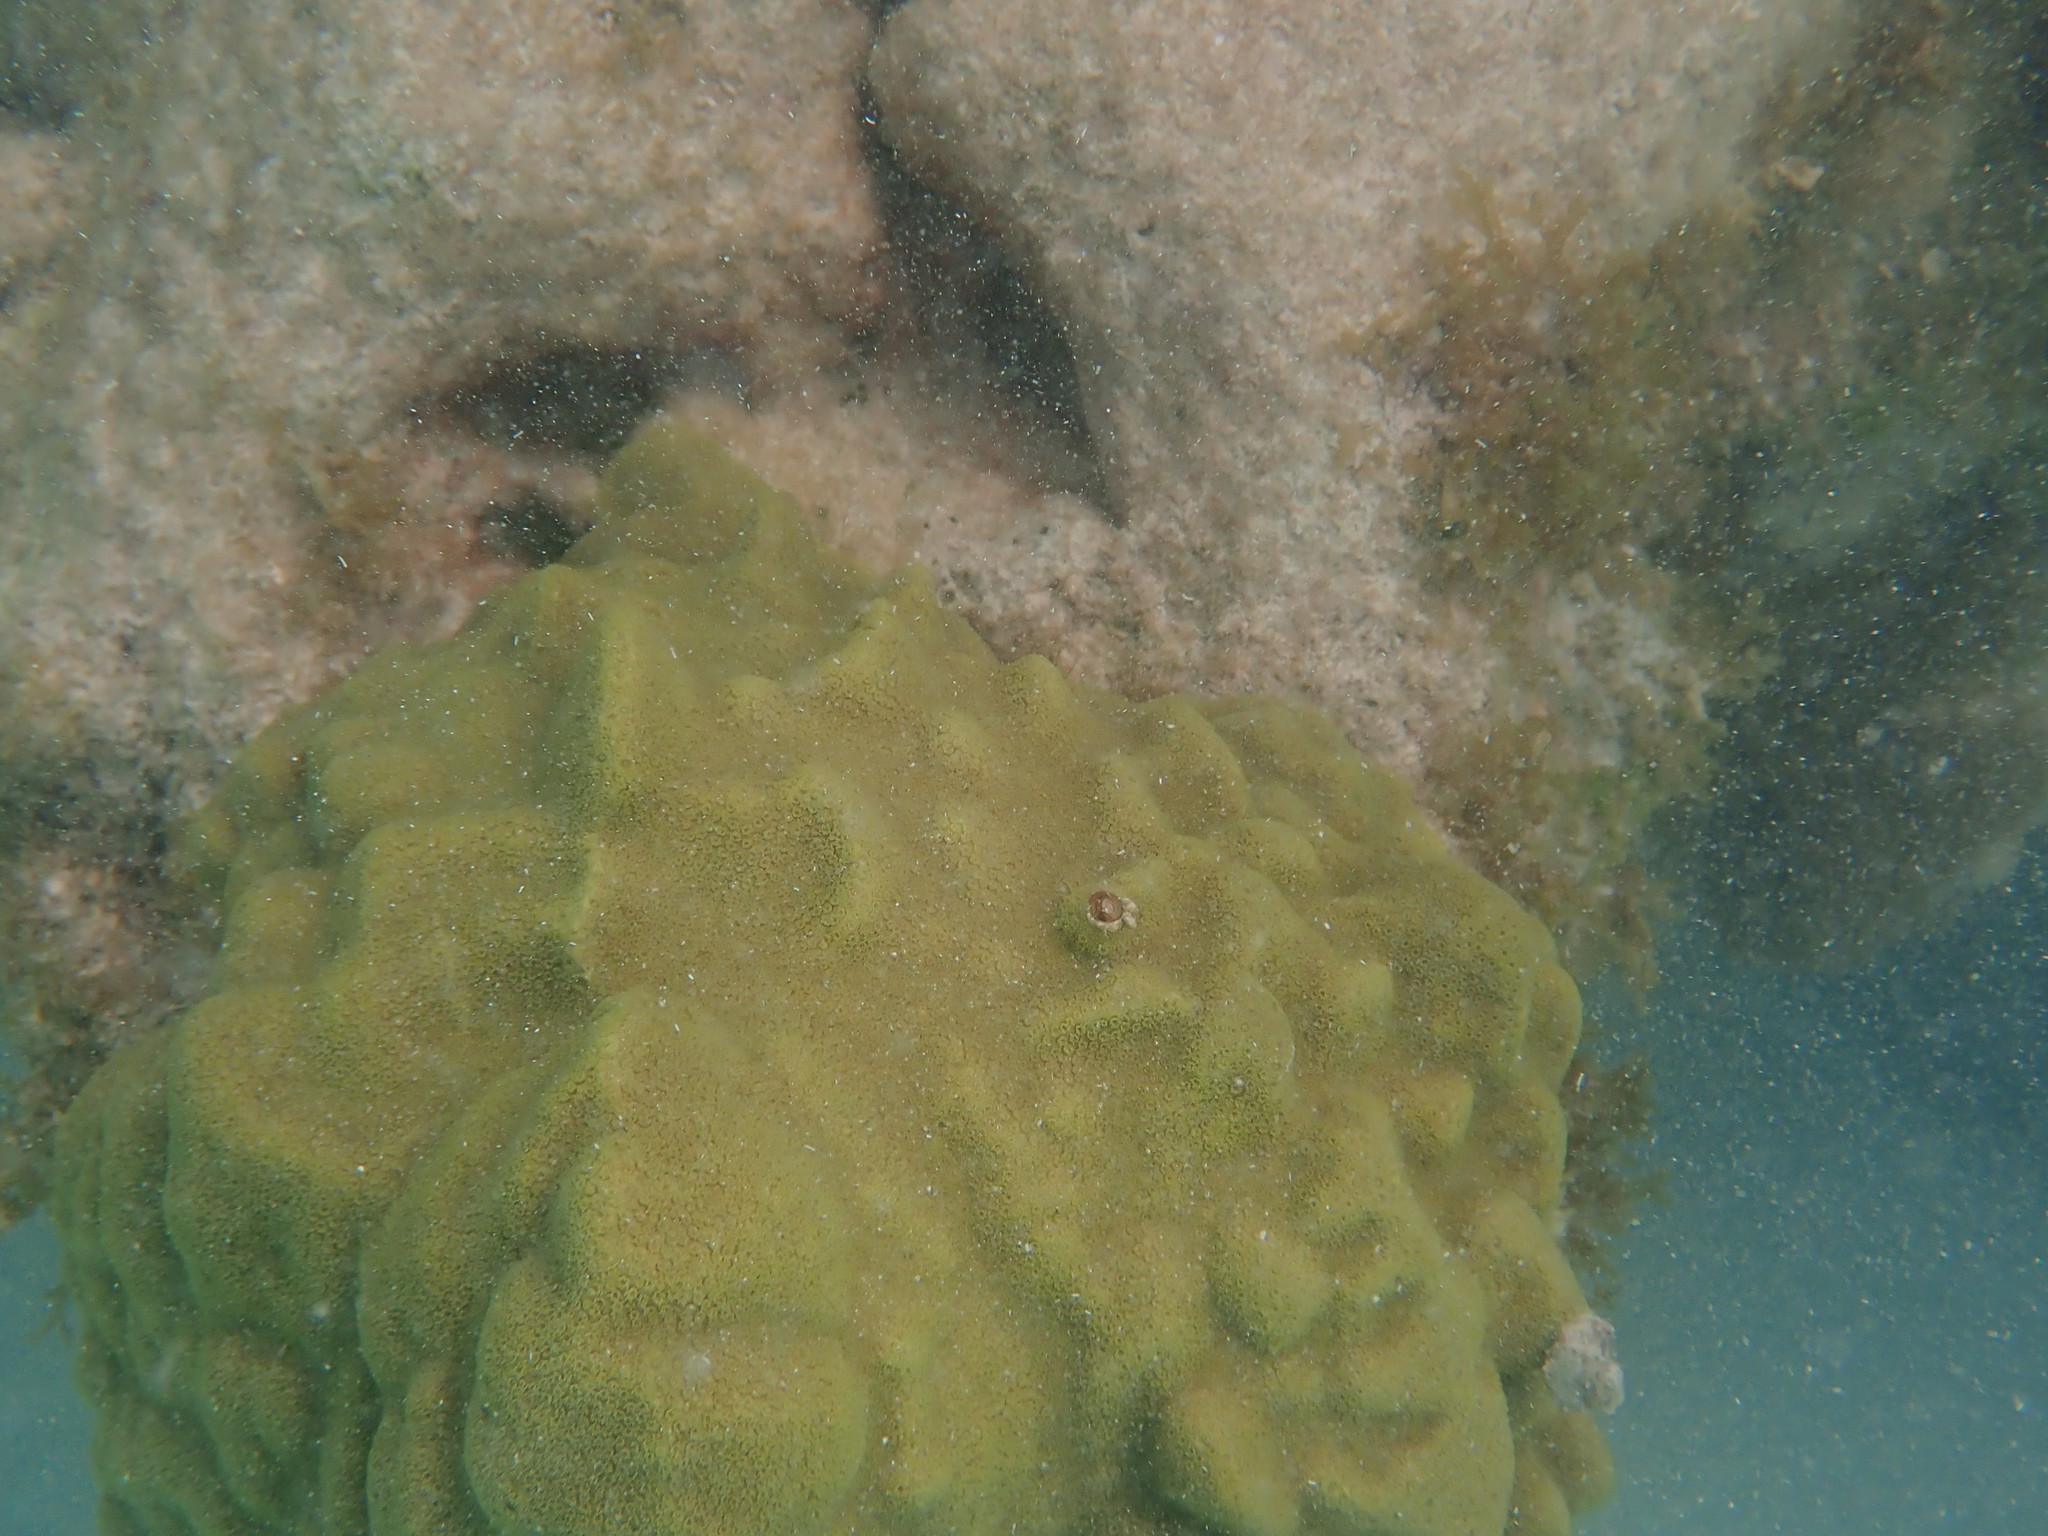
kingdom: Animalia
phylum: Cnidaria
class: Anthozoa
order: Scleractinia
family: Poritidae
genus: Porites
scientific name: Porites astreoides
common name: Mustard hill coral
